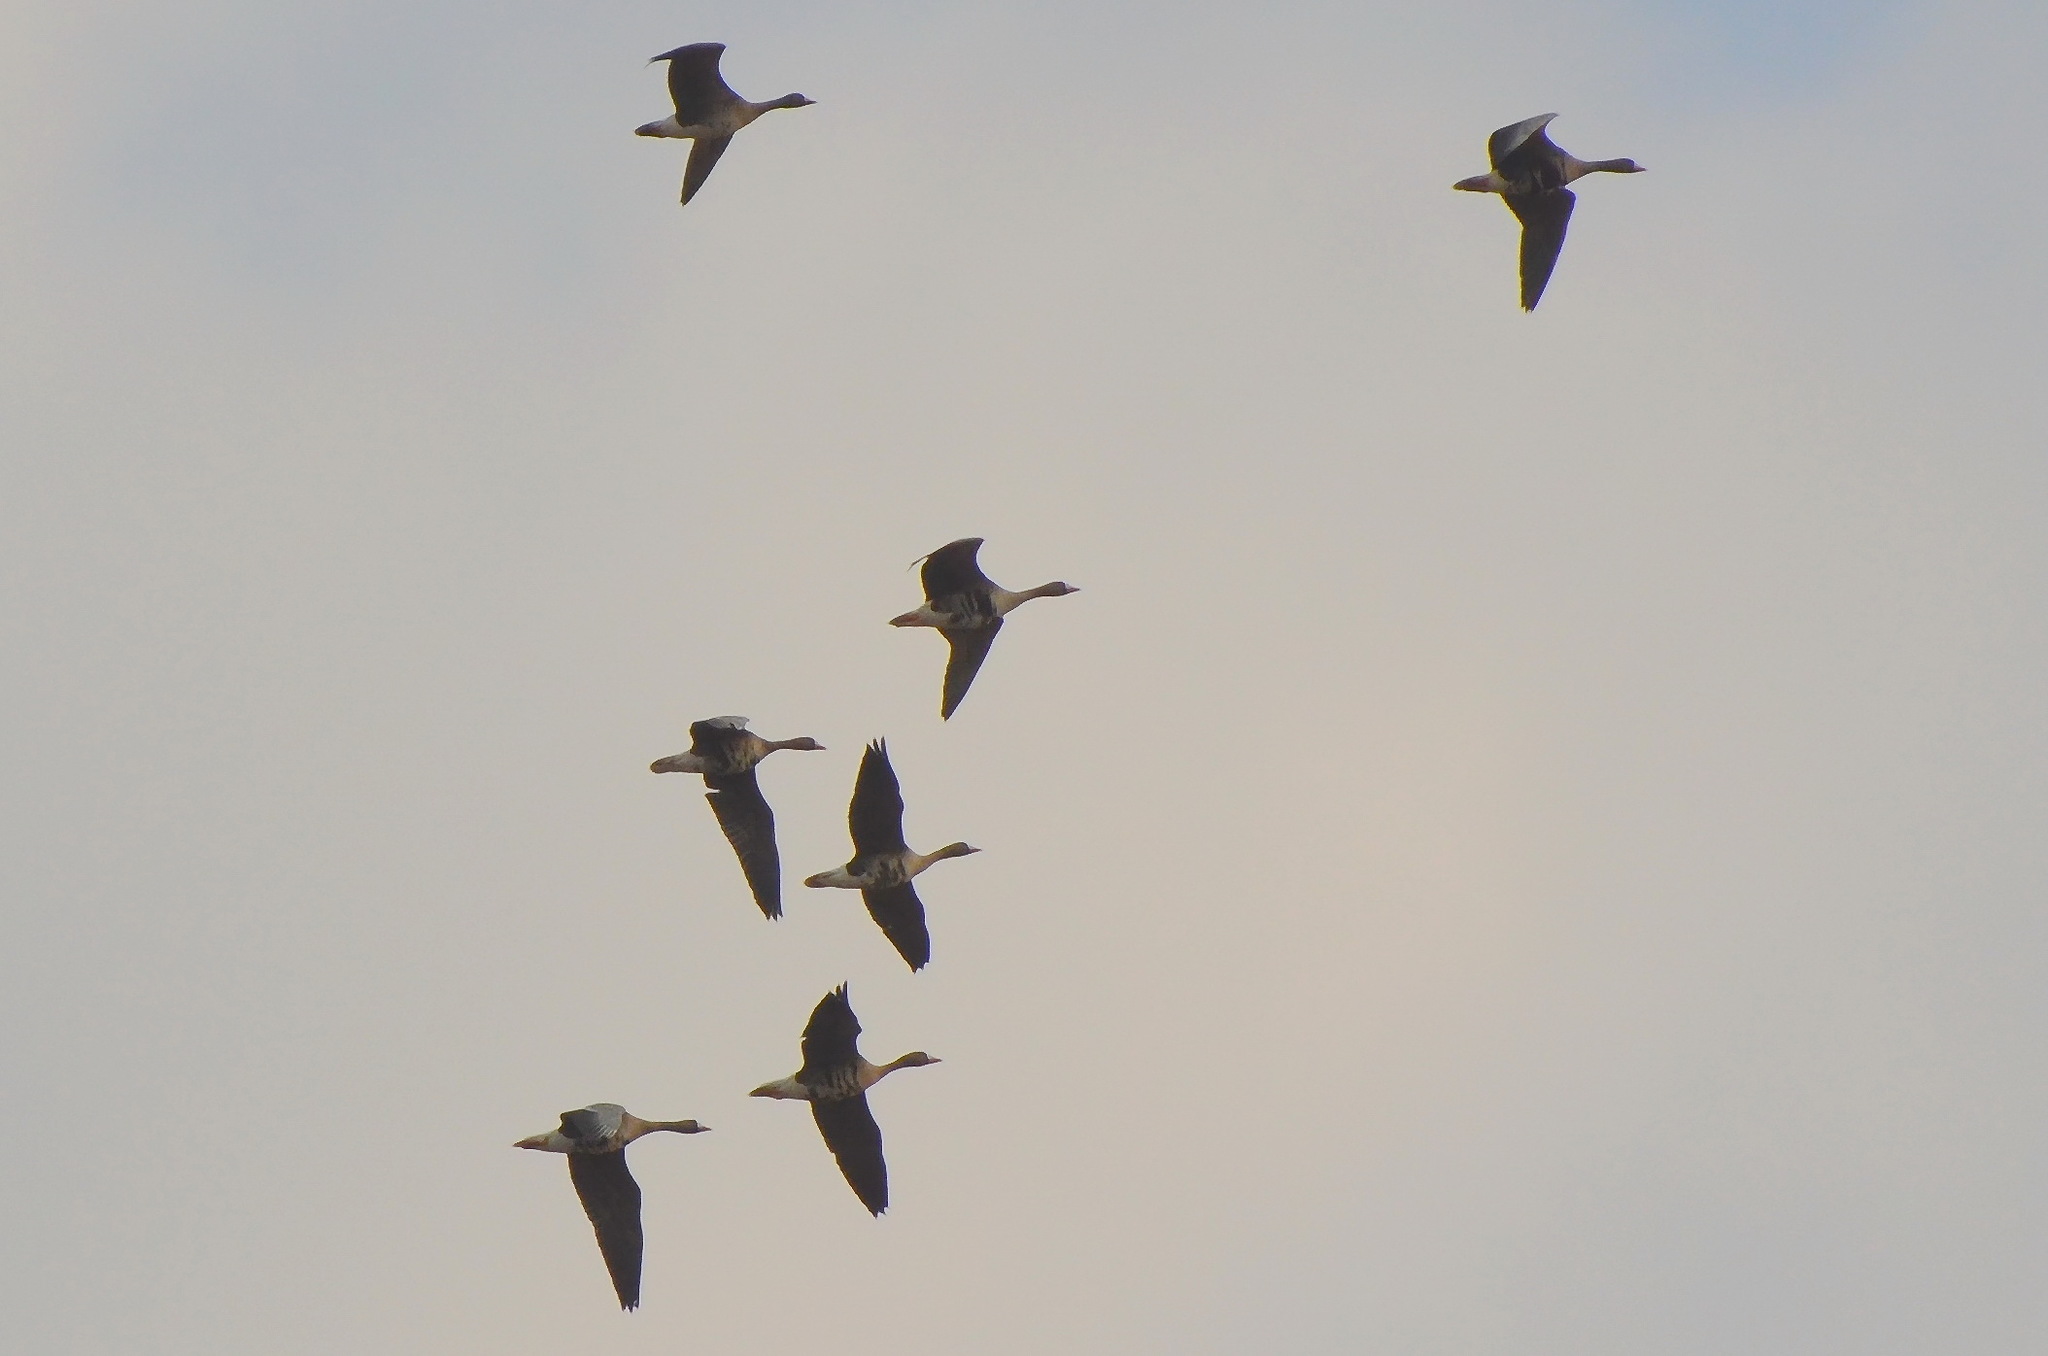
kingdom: Animalia
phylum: Chordata
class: Aves
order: Anseriformes
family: Anatidae
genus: Anser
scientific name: Anser albifrons
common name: Greater white-fronted goose
